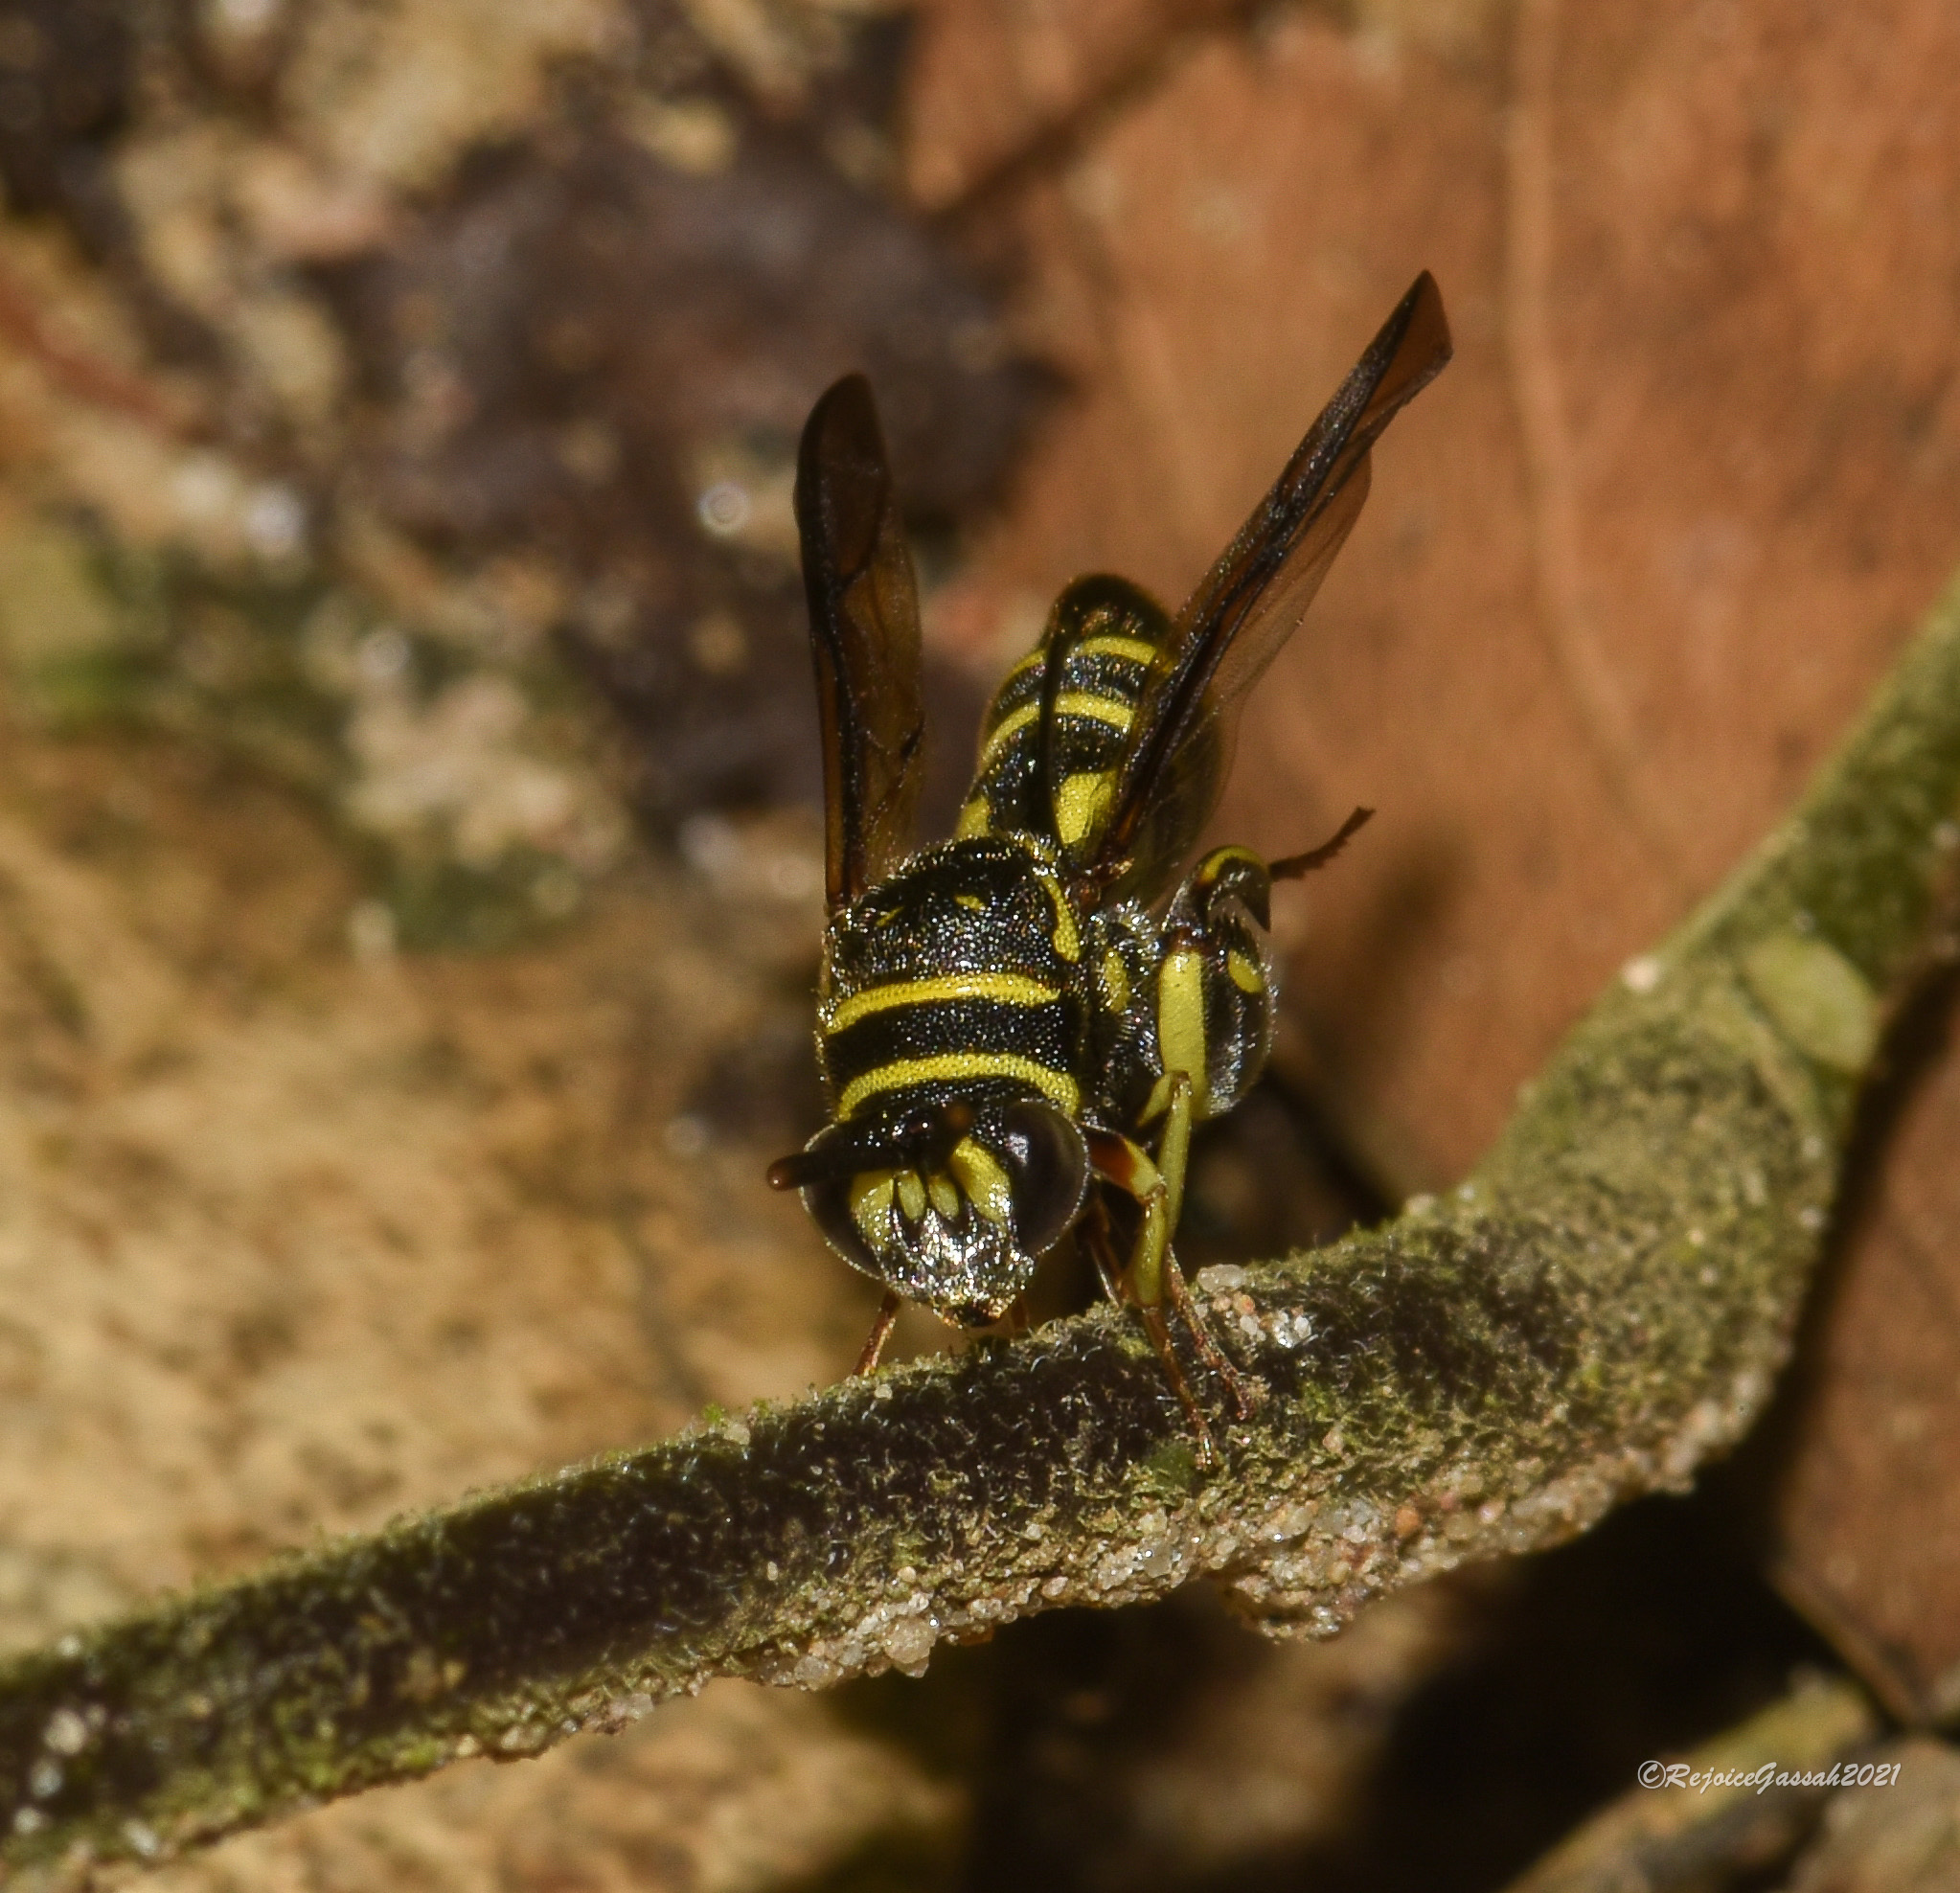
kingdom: Animalia
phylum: Arthropoda
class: Insecta
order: Hymenoptera
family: Leucospidae
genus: Leucospis
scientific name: Leucospis histrio
